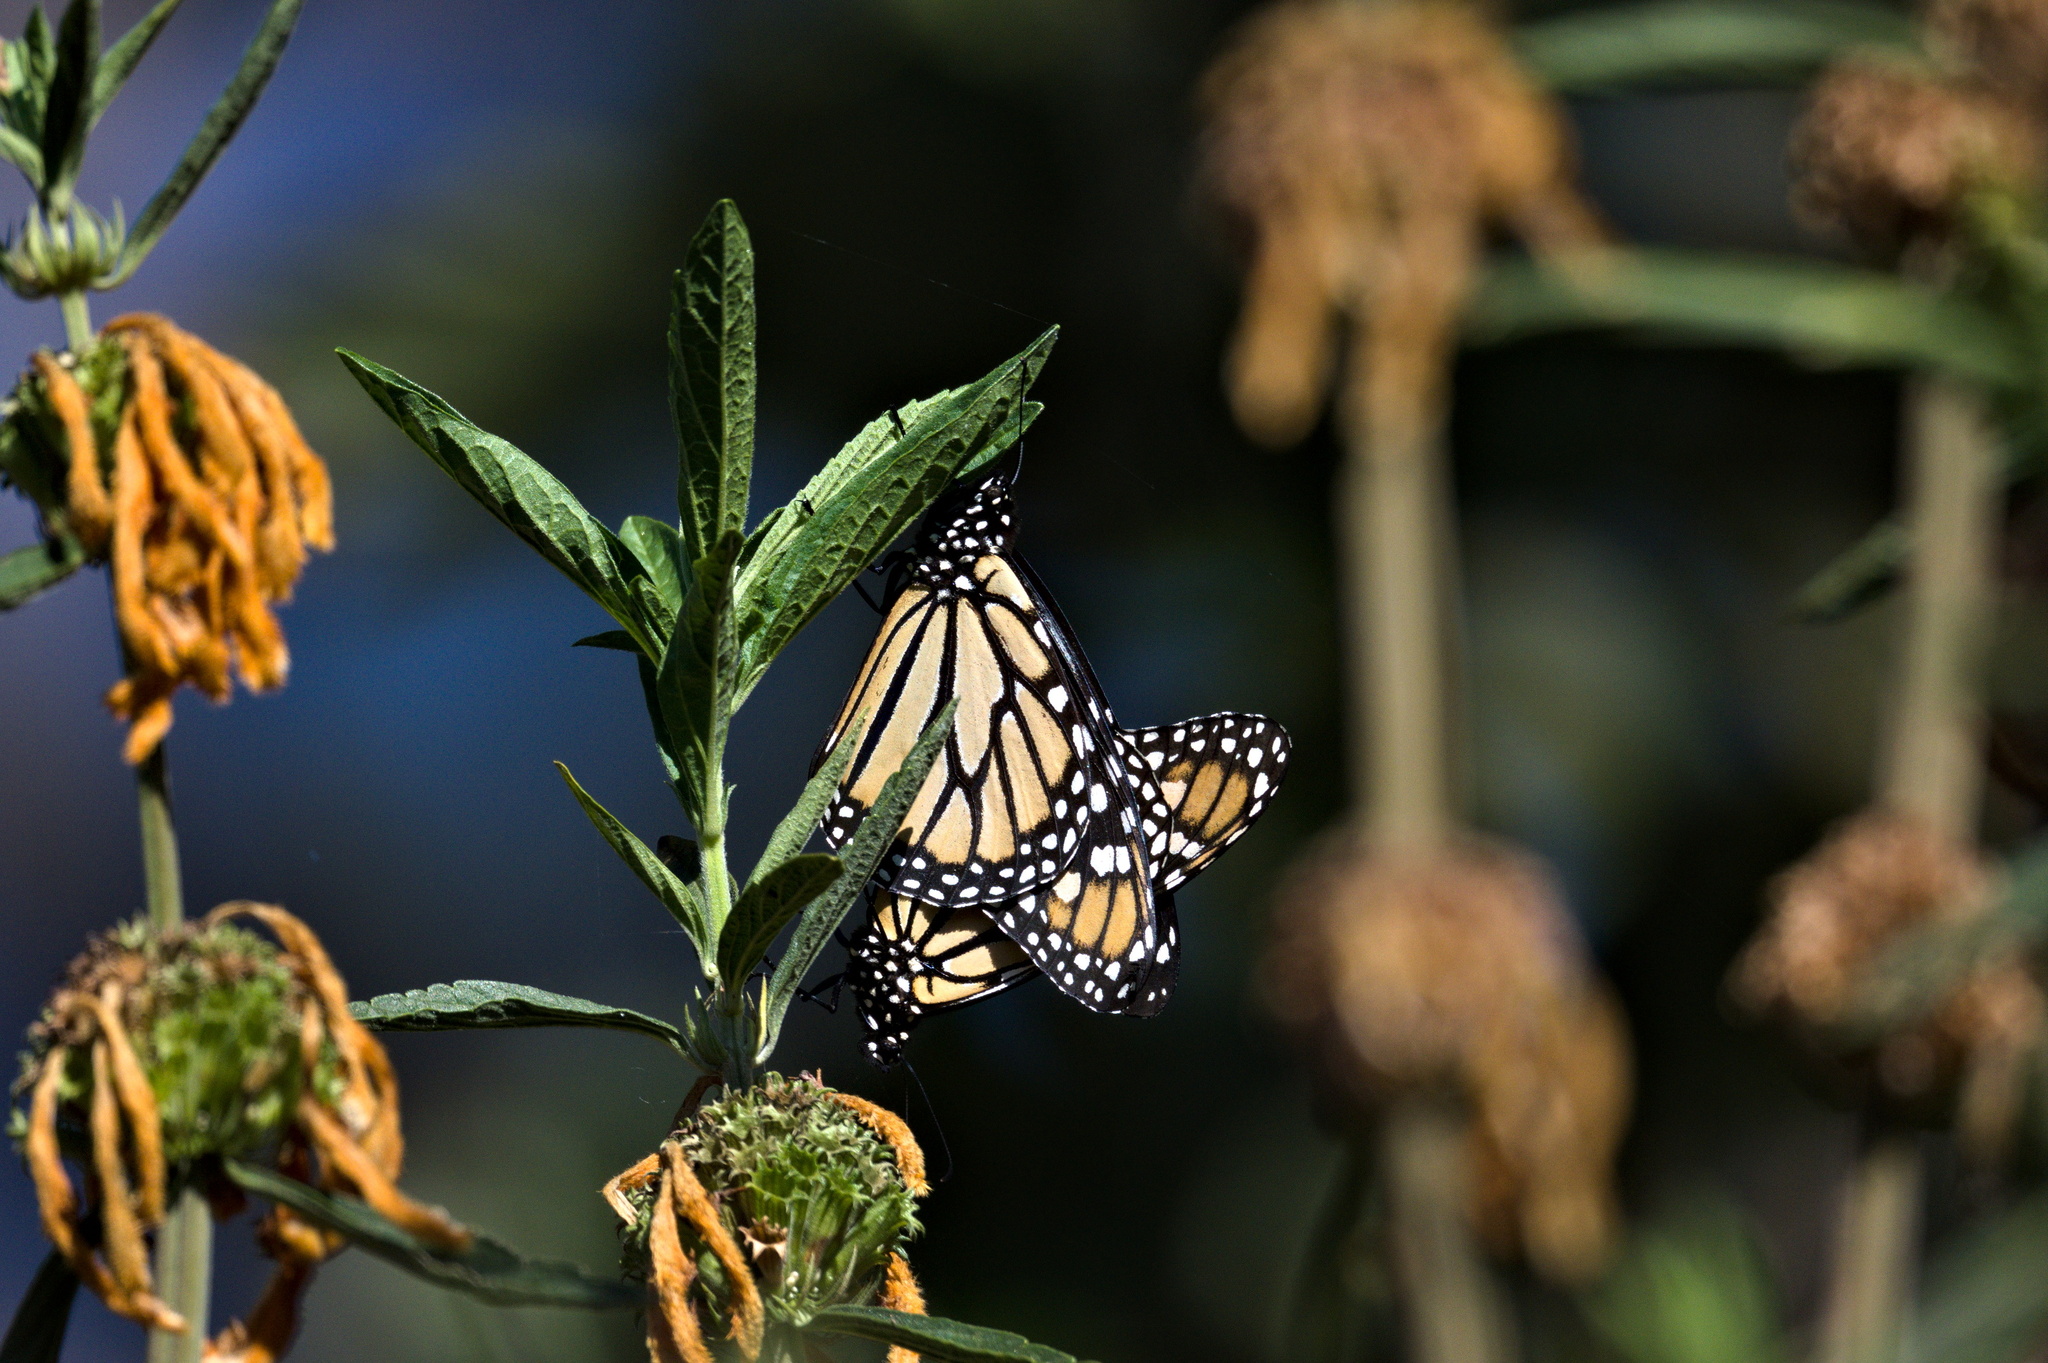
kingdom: Animalia
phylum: Arthropoda
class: Insecta
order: Lepidoptera
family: Nymphalidae
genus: Danaus
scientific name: Danaus plexippus
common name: Monarch
